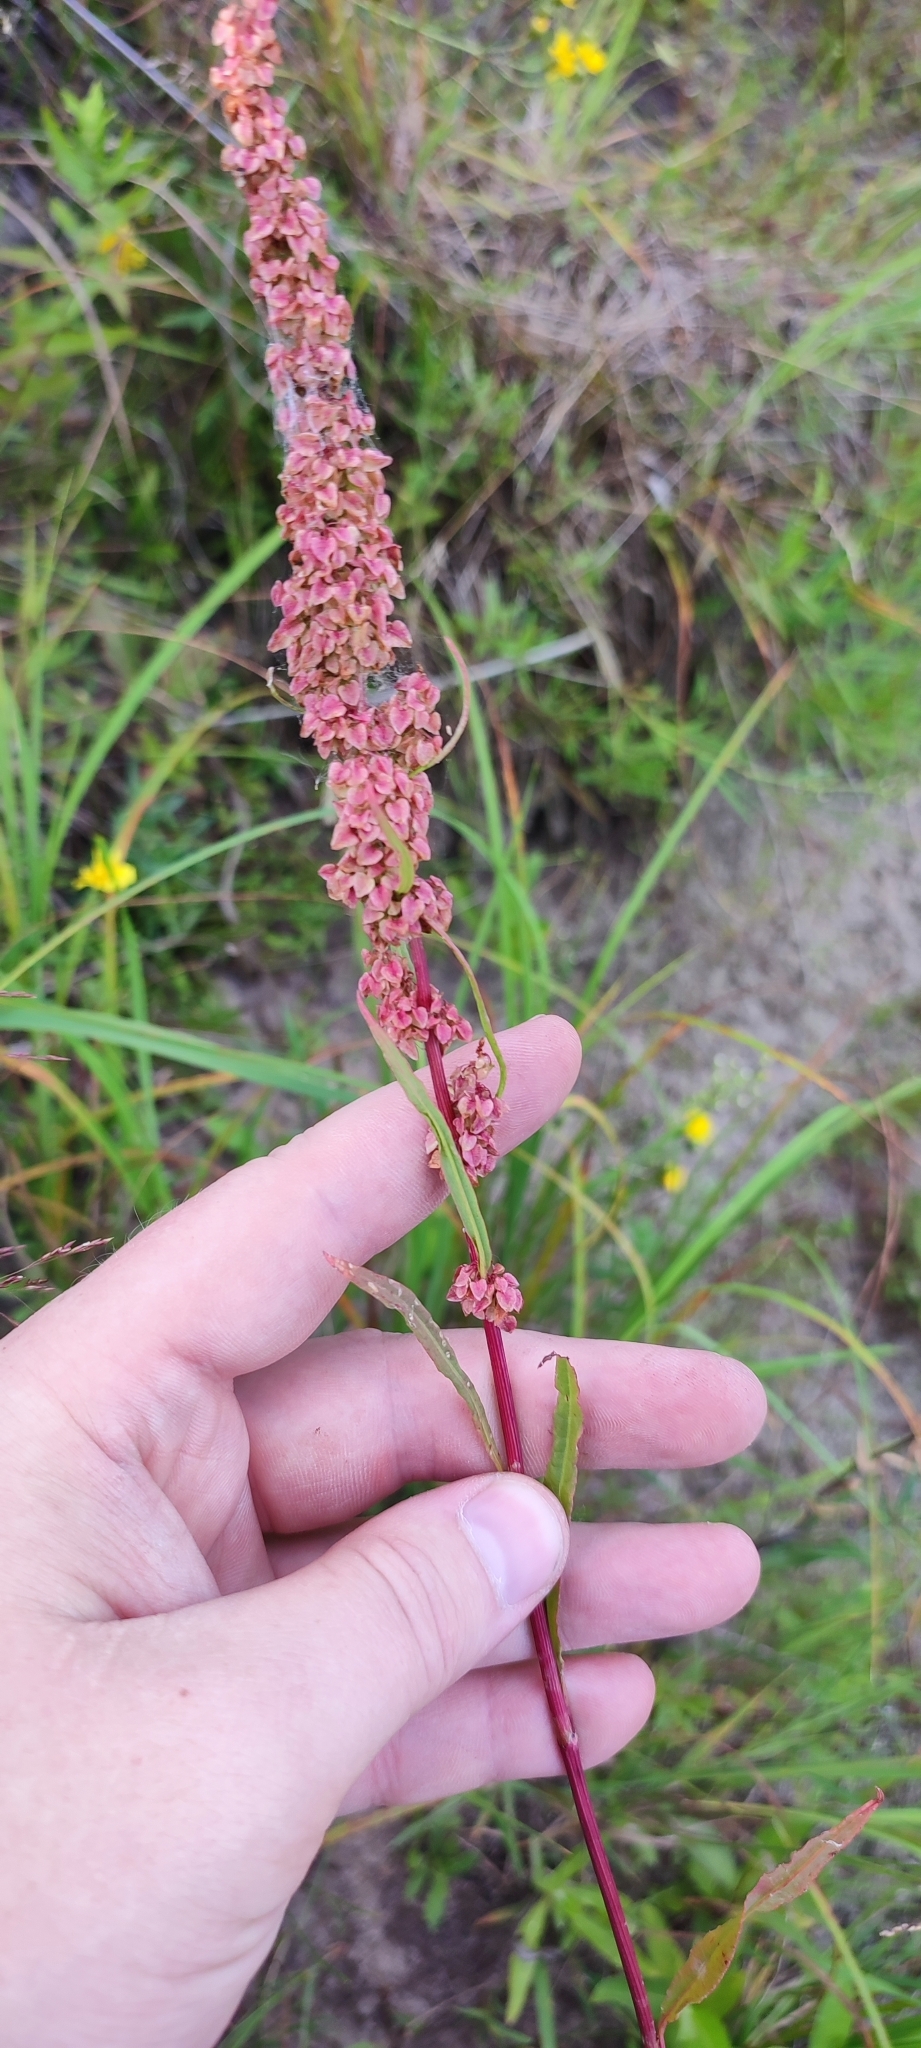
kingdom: Plantae
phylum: Tracheophyta
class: Magnoliopsida
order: Caryophyllales
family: Polygonaceae
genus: Rumex
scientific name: Rumex pseudonatronatus
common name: Field dock
